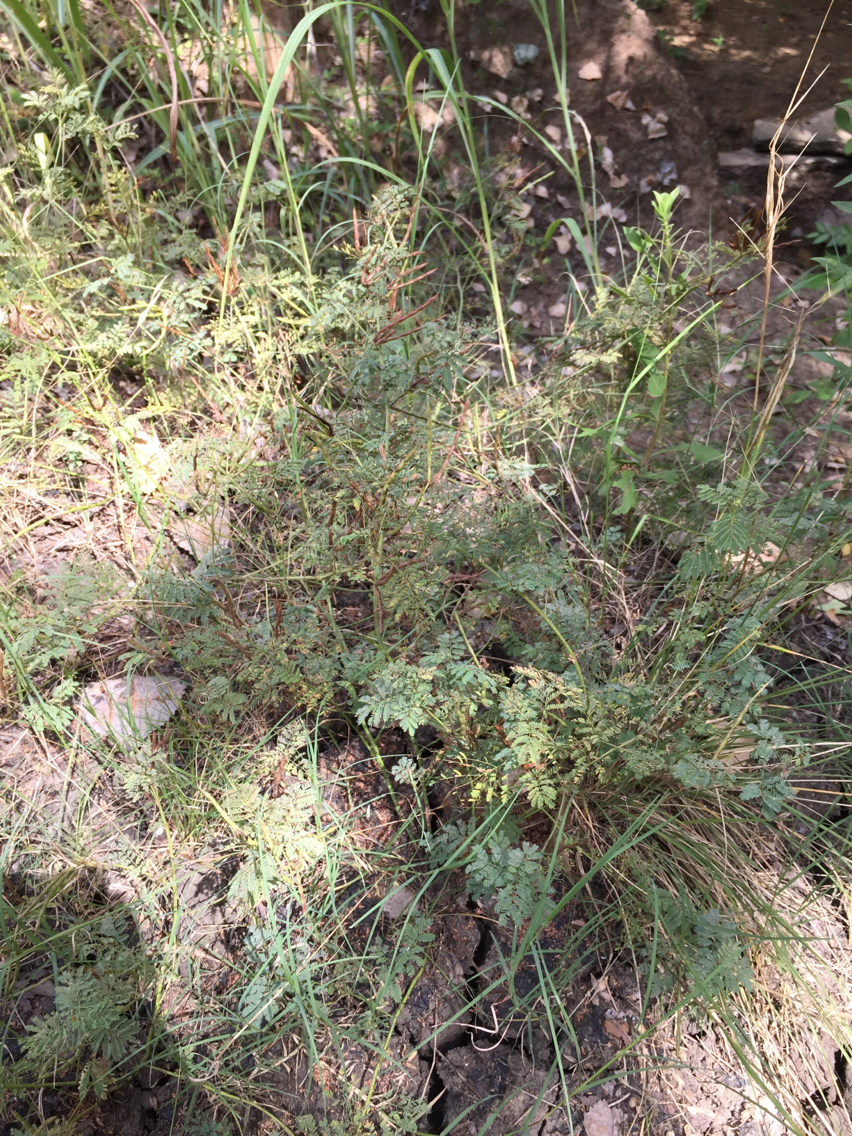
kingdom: Plantae
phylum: Tracheophyta
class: Magnoliopsida
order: Fabales
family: Fabaceae
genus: Desmanthus
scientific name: Desmanthus leptolobus
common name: Prairie-mimosa
